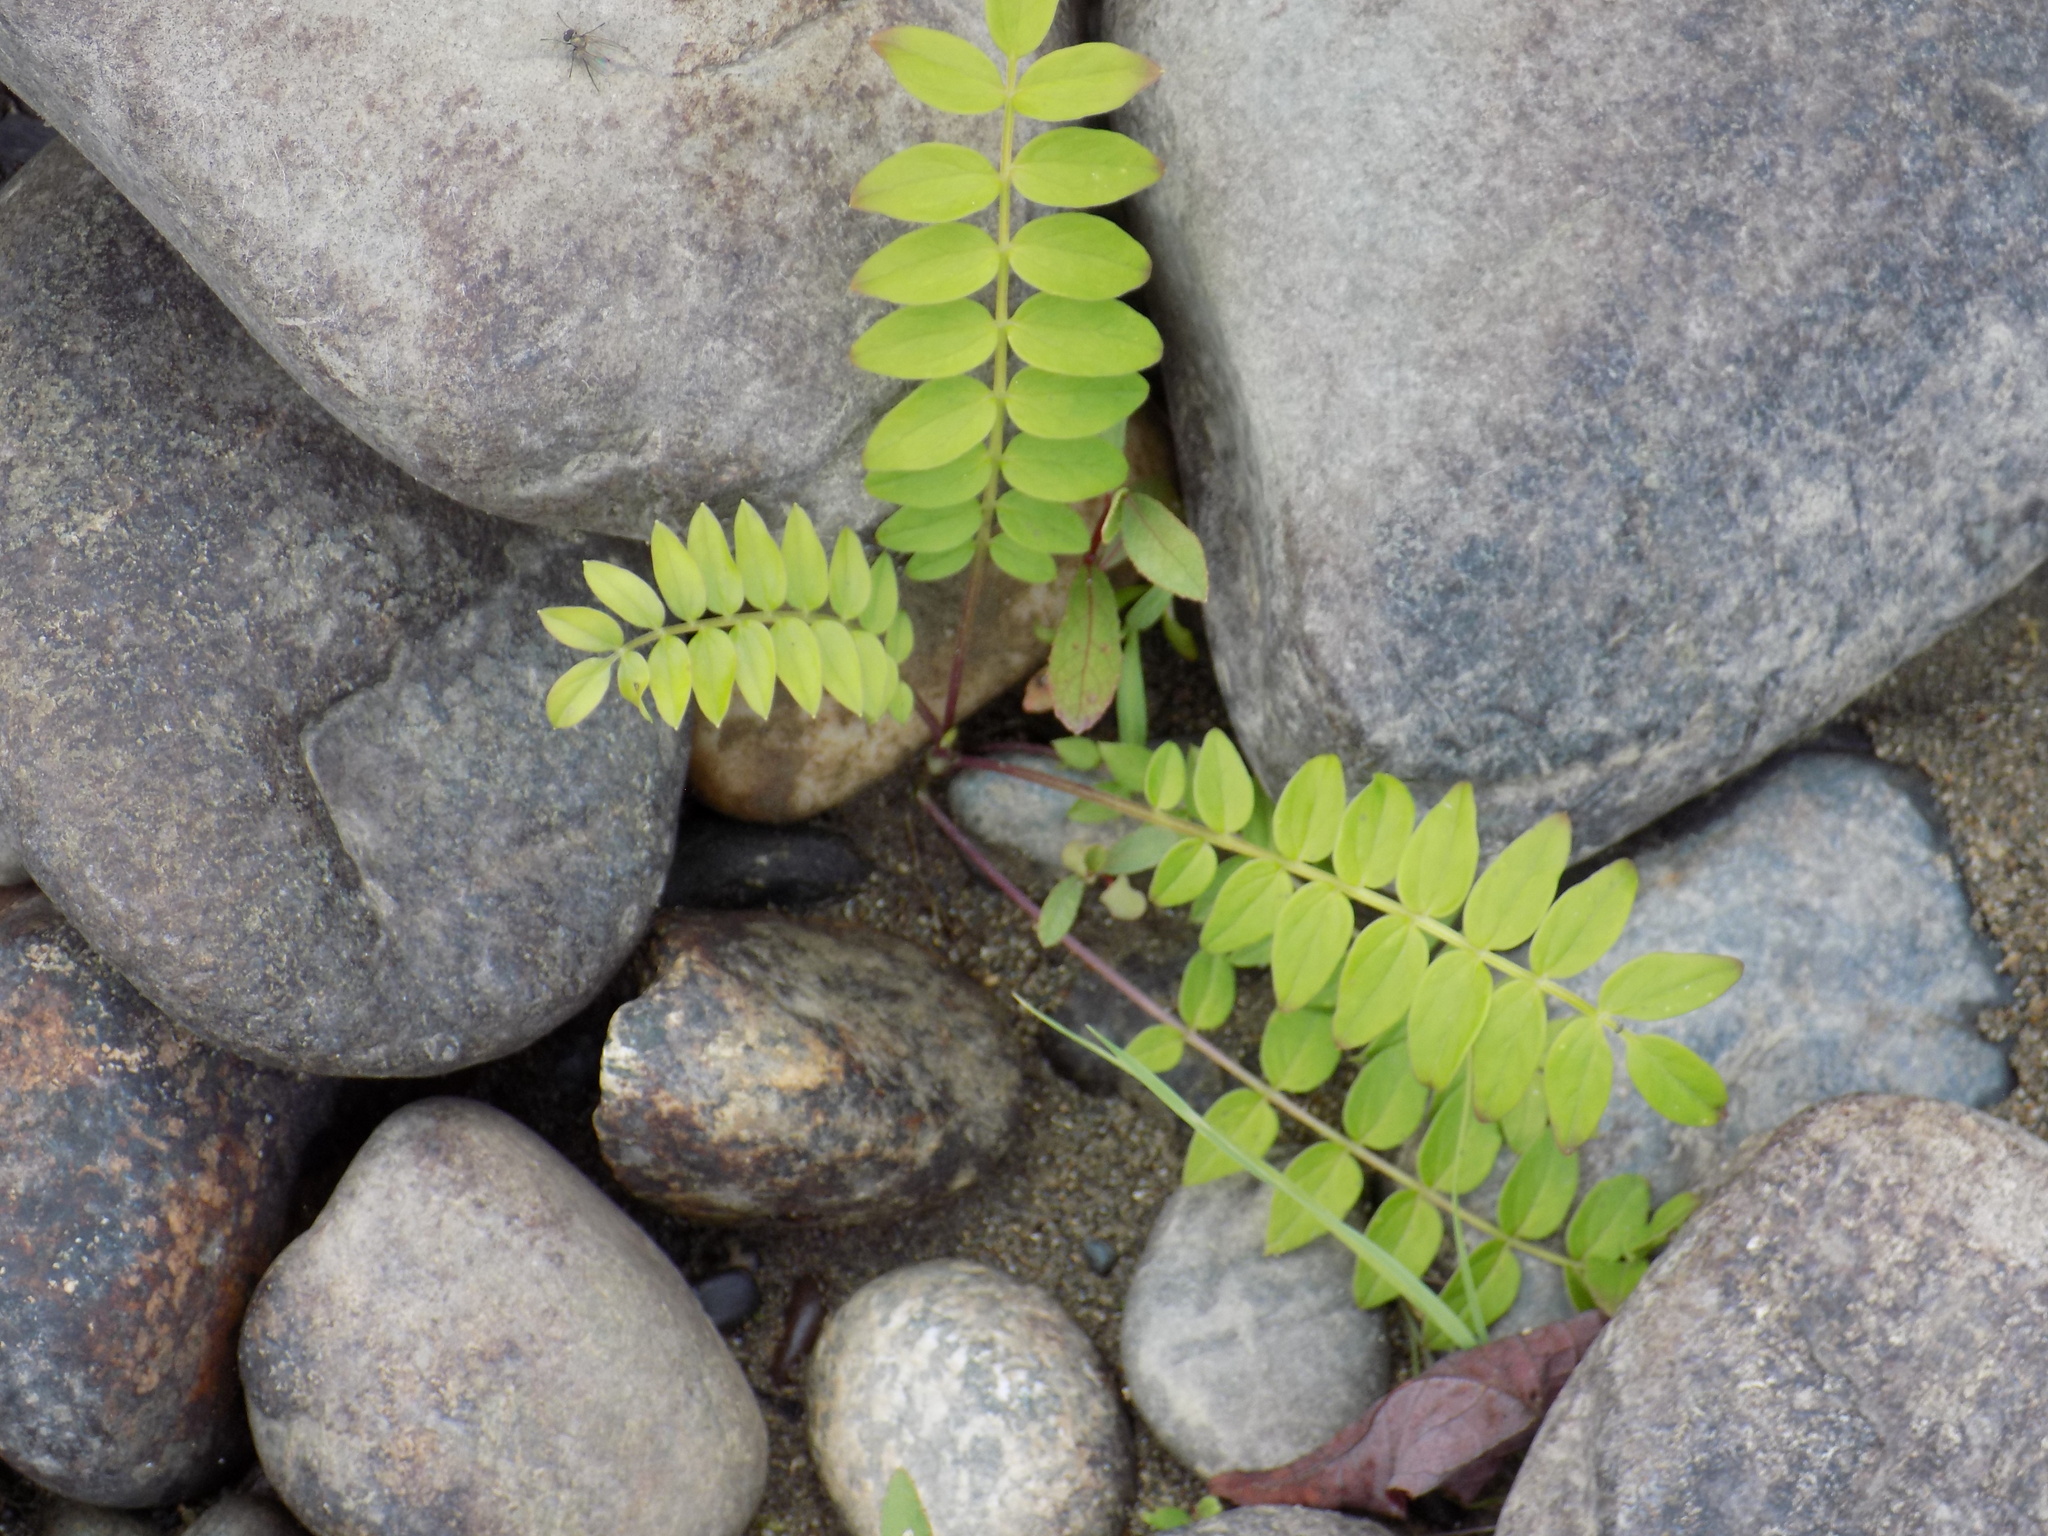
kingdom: Plantae
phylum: Tracheophyta
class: Magnoliopsida
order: Ericales
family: Polemoniaceae
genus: Polemonium
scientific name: Polemonium caeruleum
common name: Jacob's-ladder
